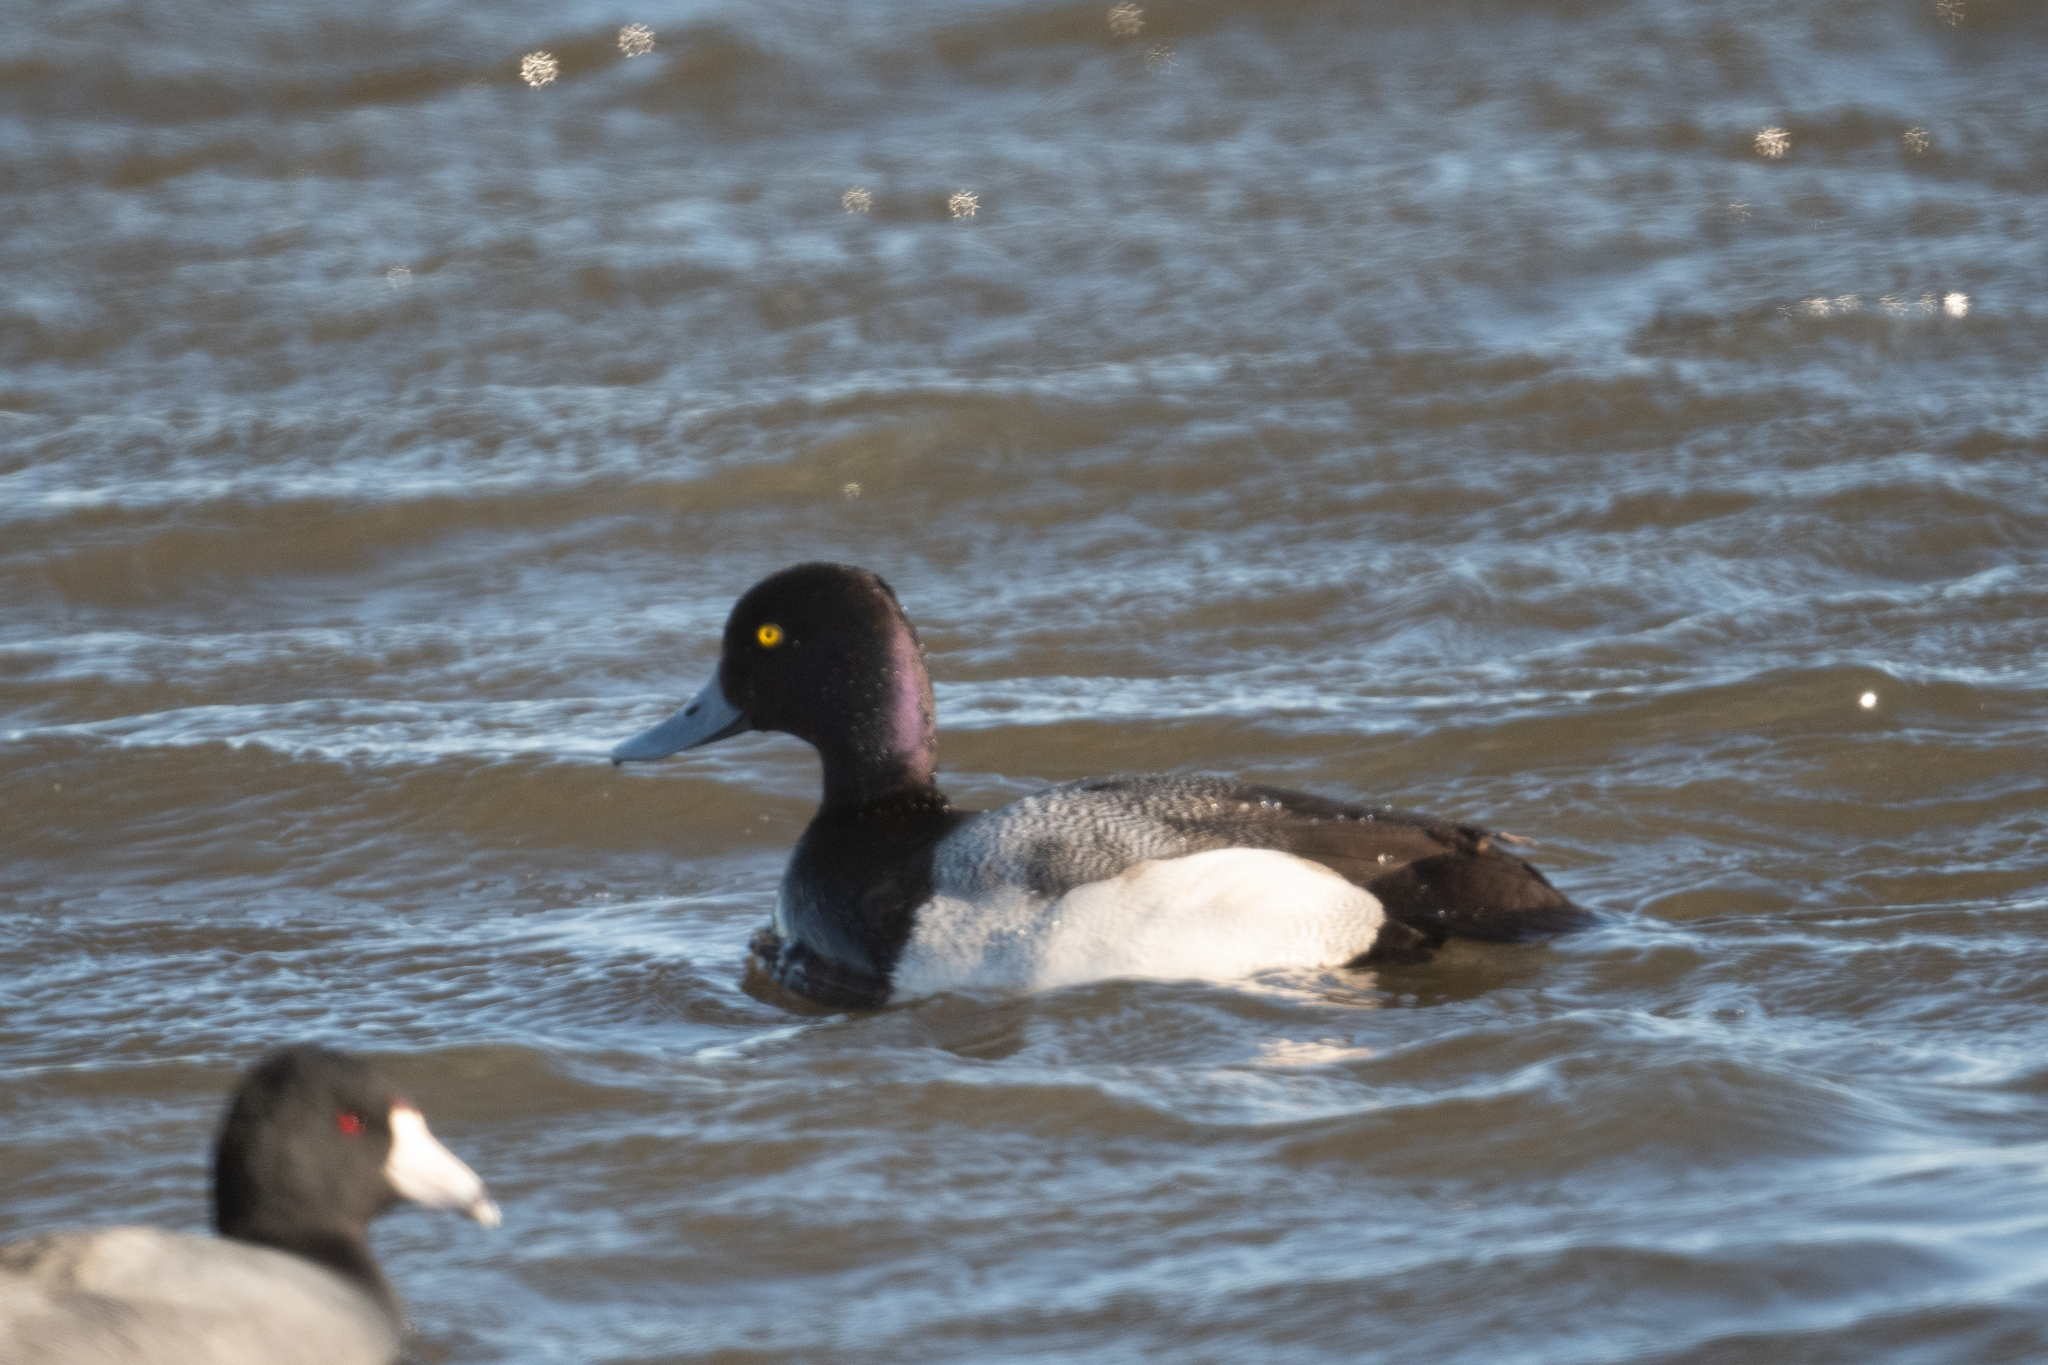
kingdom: Animalia
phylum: Chordata
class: Aves
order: Anseriformes
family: Anatidae
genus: Aythya
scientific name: Aythya affinis
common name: Lesser scaup
